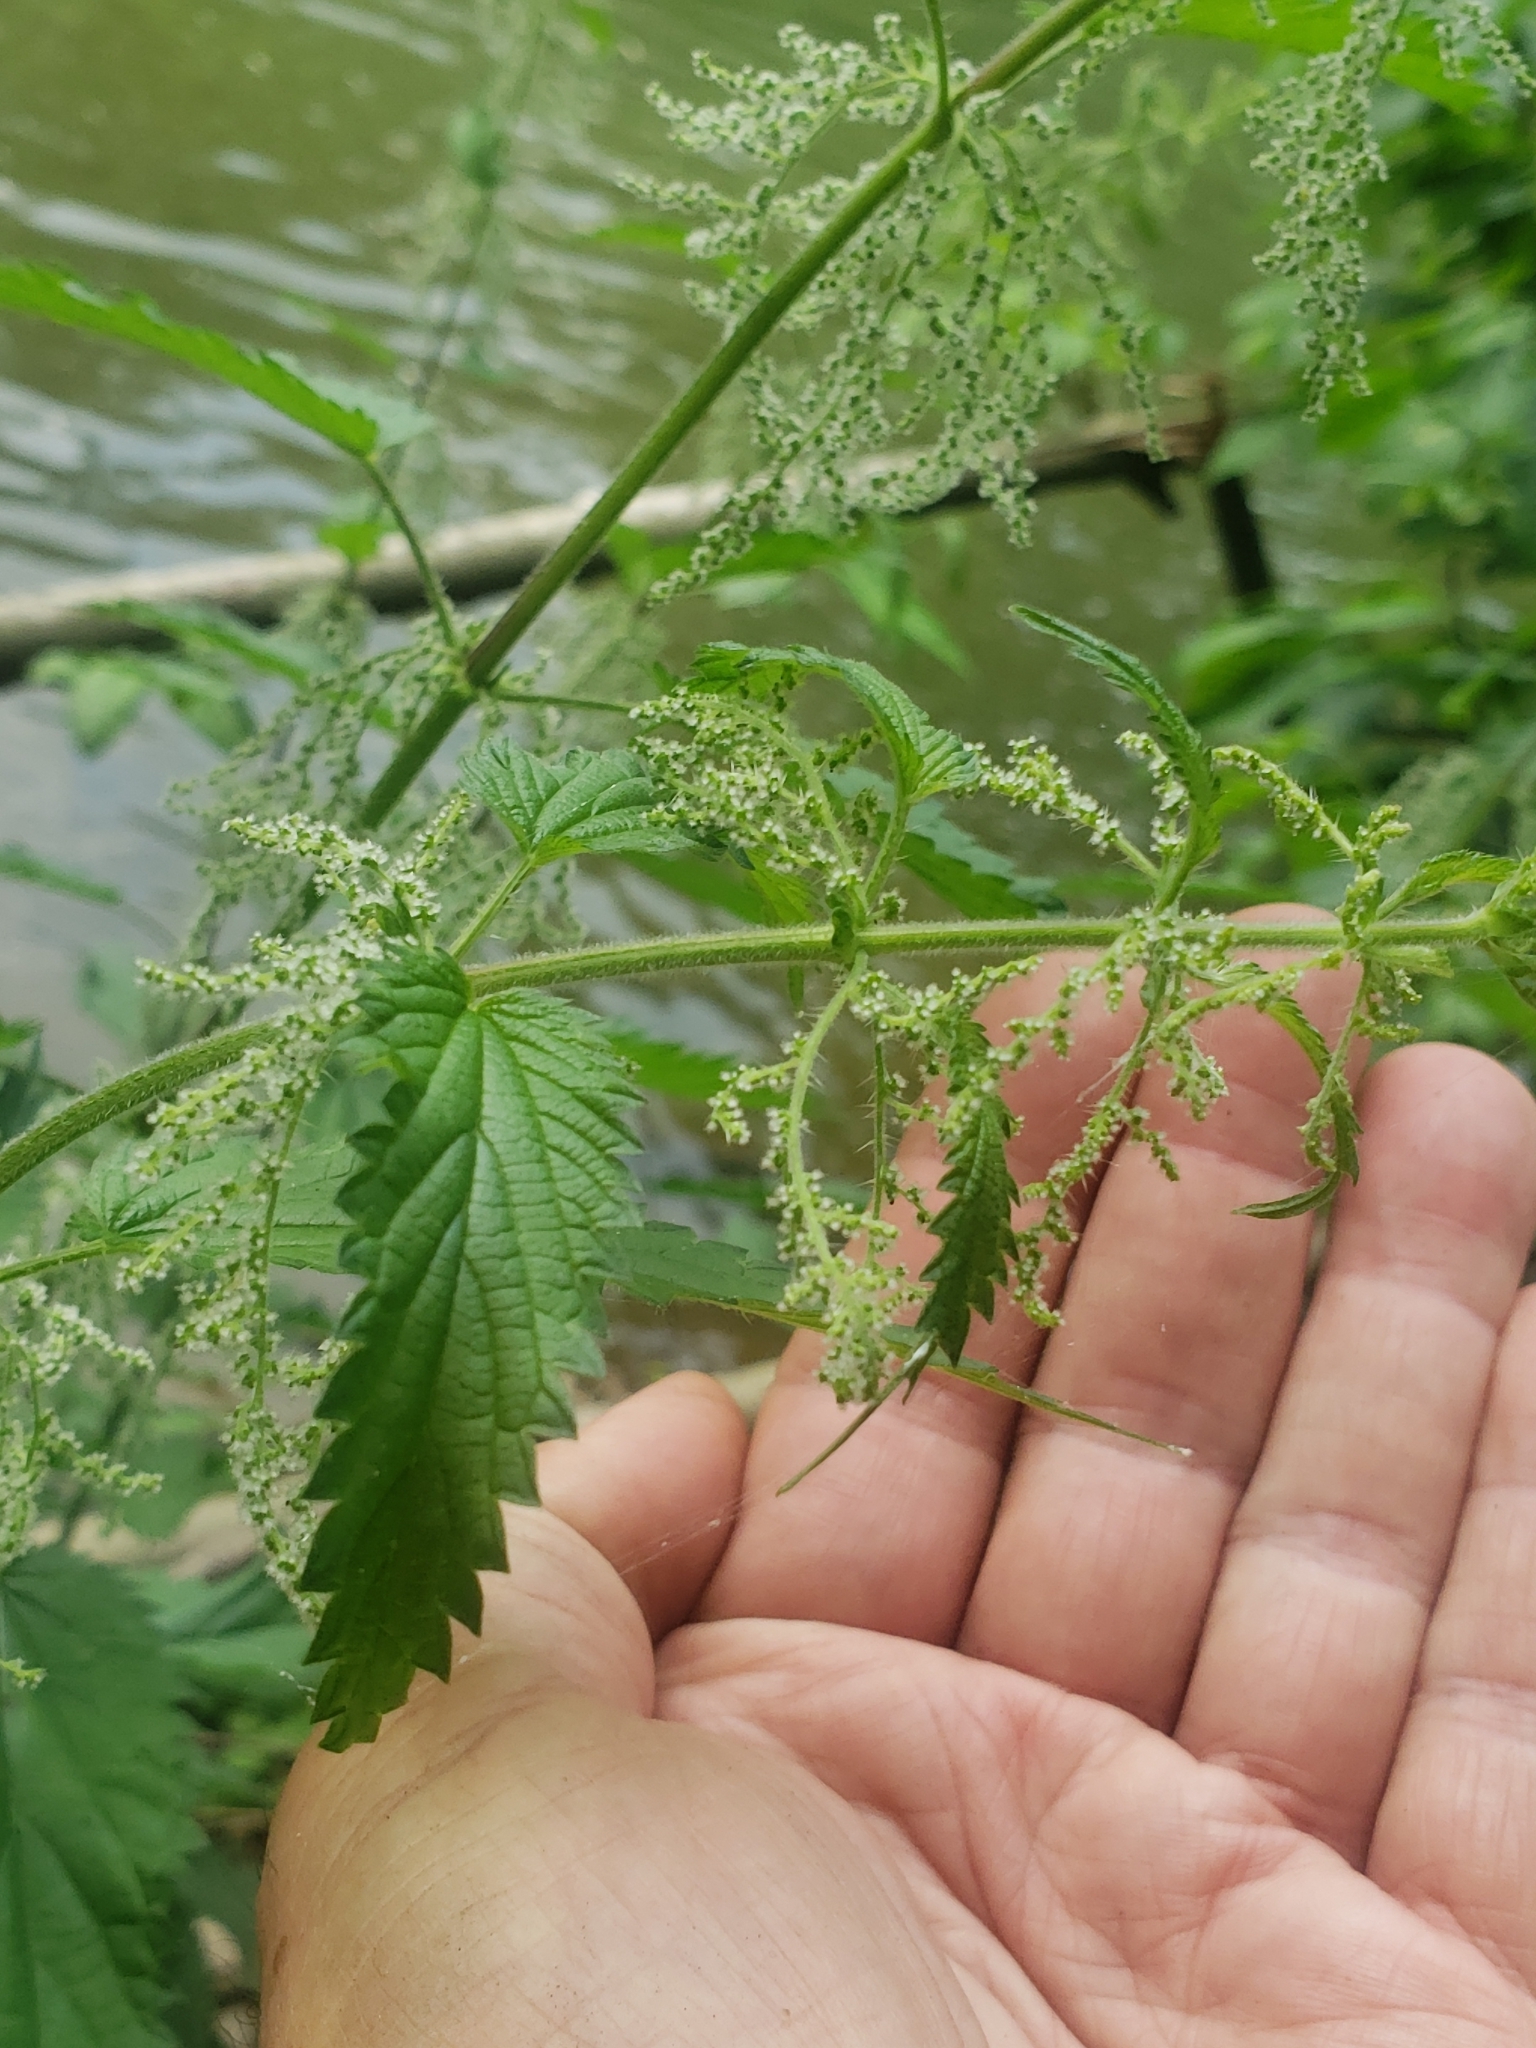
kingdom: Plantae
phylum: Tracheophyta
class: Magnoliopsida
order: Rosales
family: Urticaceae
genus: Urtica
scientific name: Urtica dioica
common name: Common nettle
